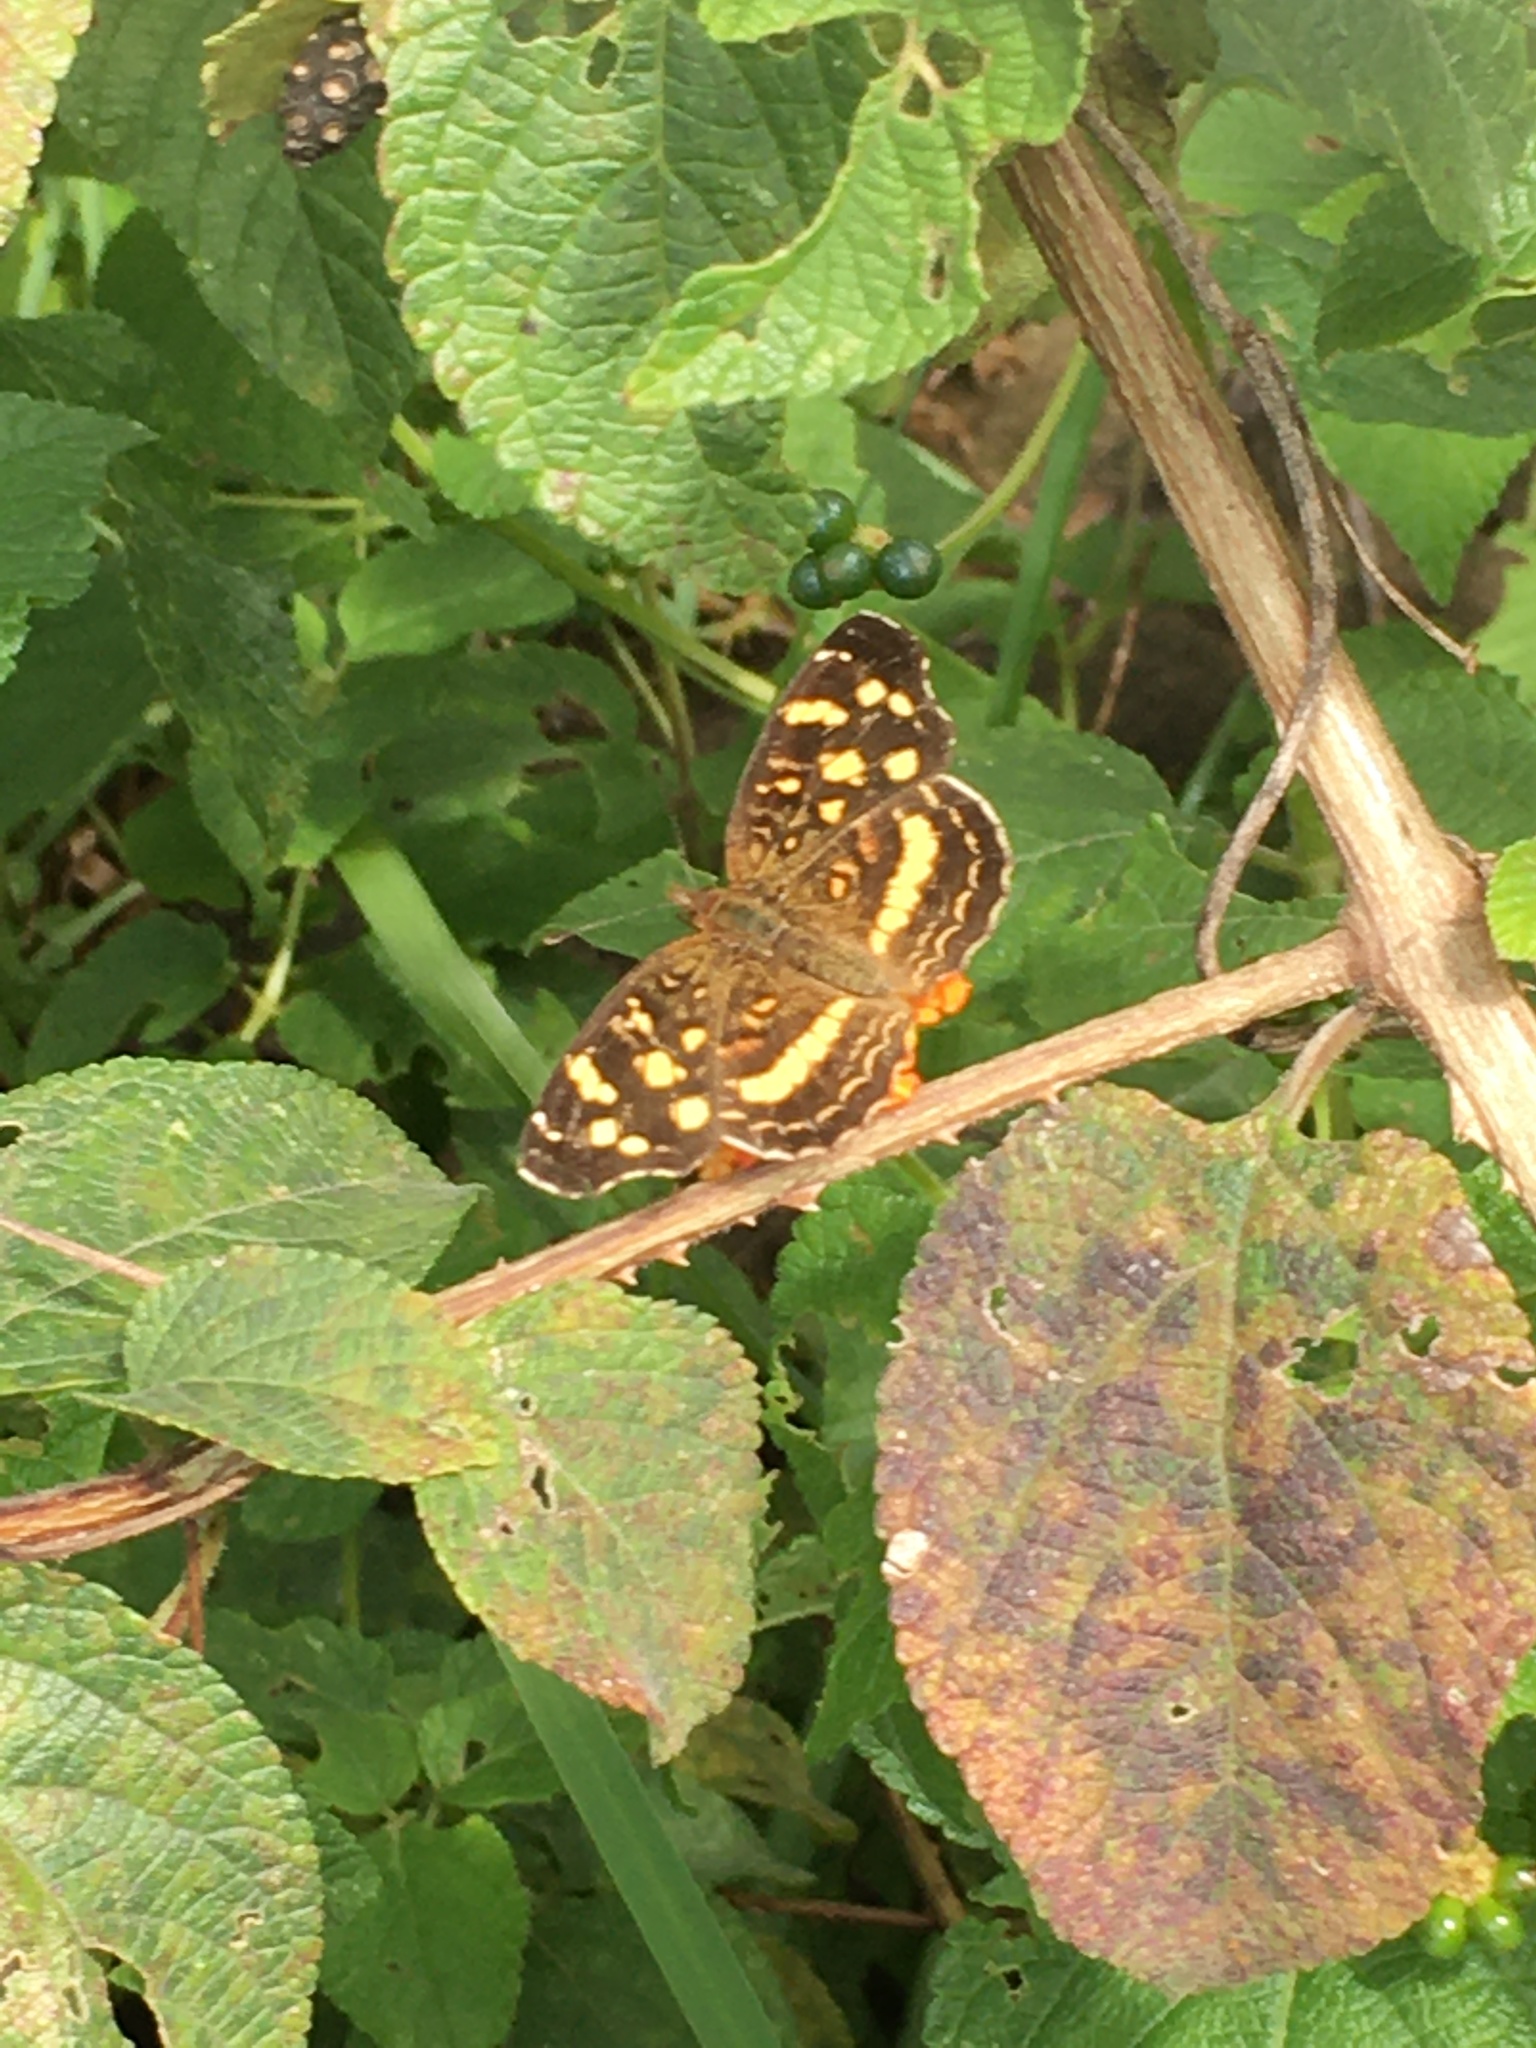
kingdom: Animalia
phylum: Arthropoda
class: Insecta
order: Lepidoptera
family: Nymphalidae
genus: Anthanassa
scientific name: Anthanassa tulcis
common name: Pale-banded crescent
